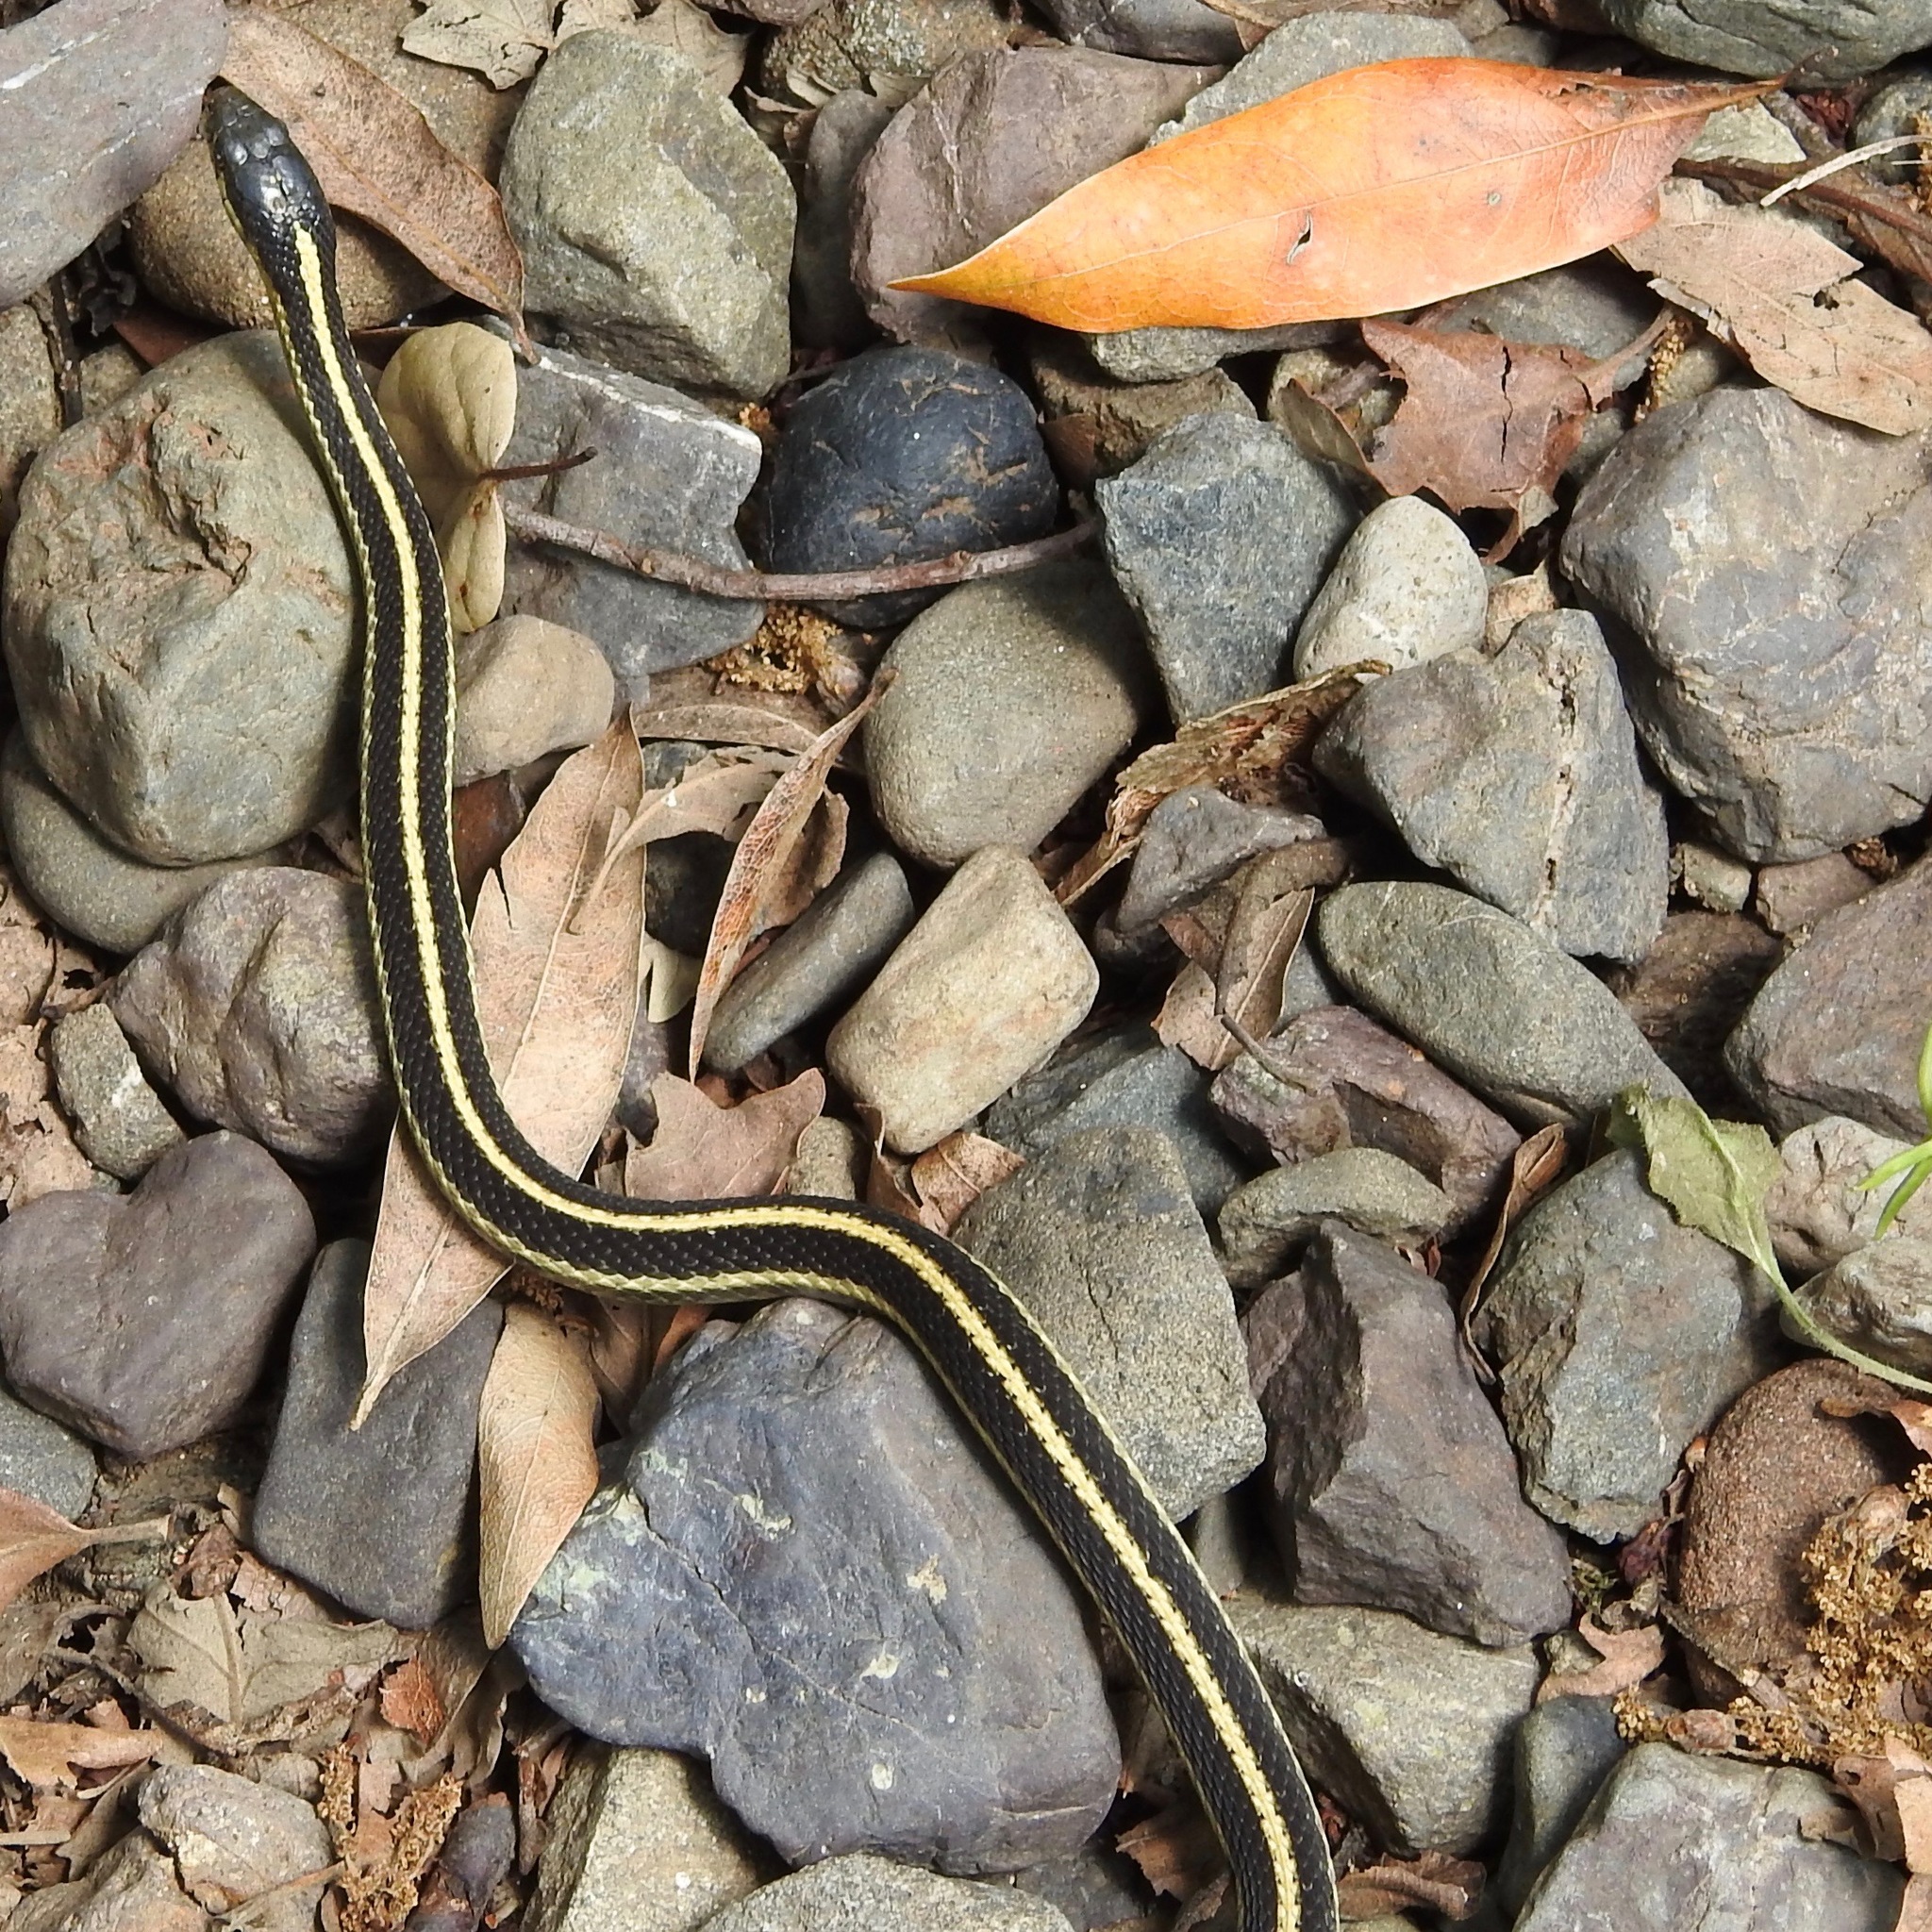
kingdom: Animalia
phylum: Chordata
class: Squamata
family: Colubridae
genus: Thamnophis
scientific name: Thamnophis elegans
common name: Western terrestrial garter snake
